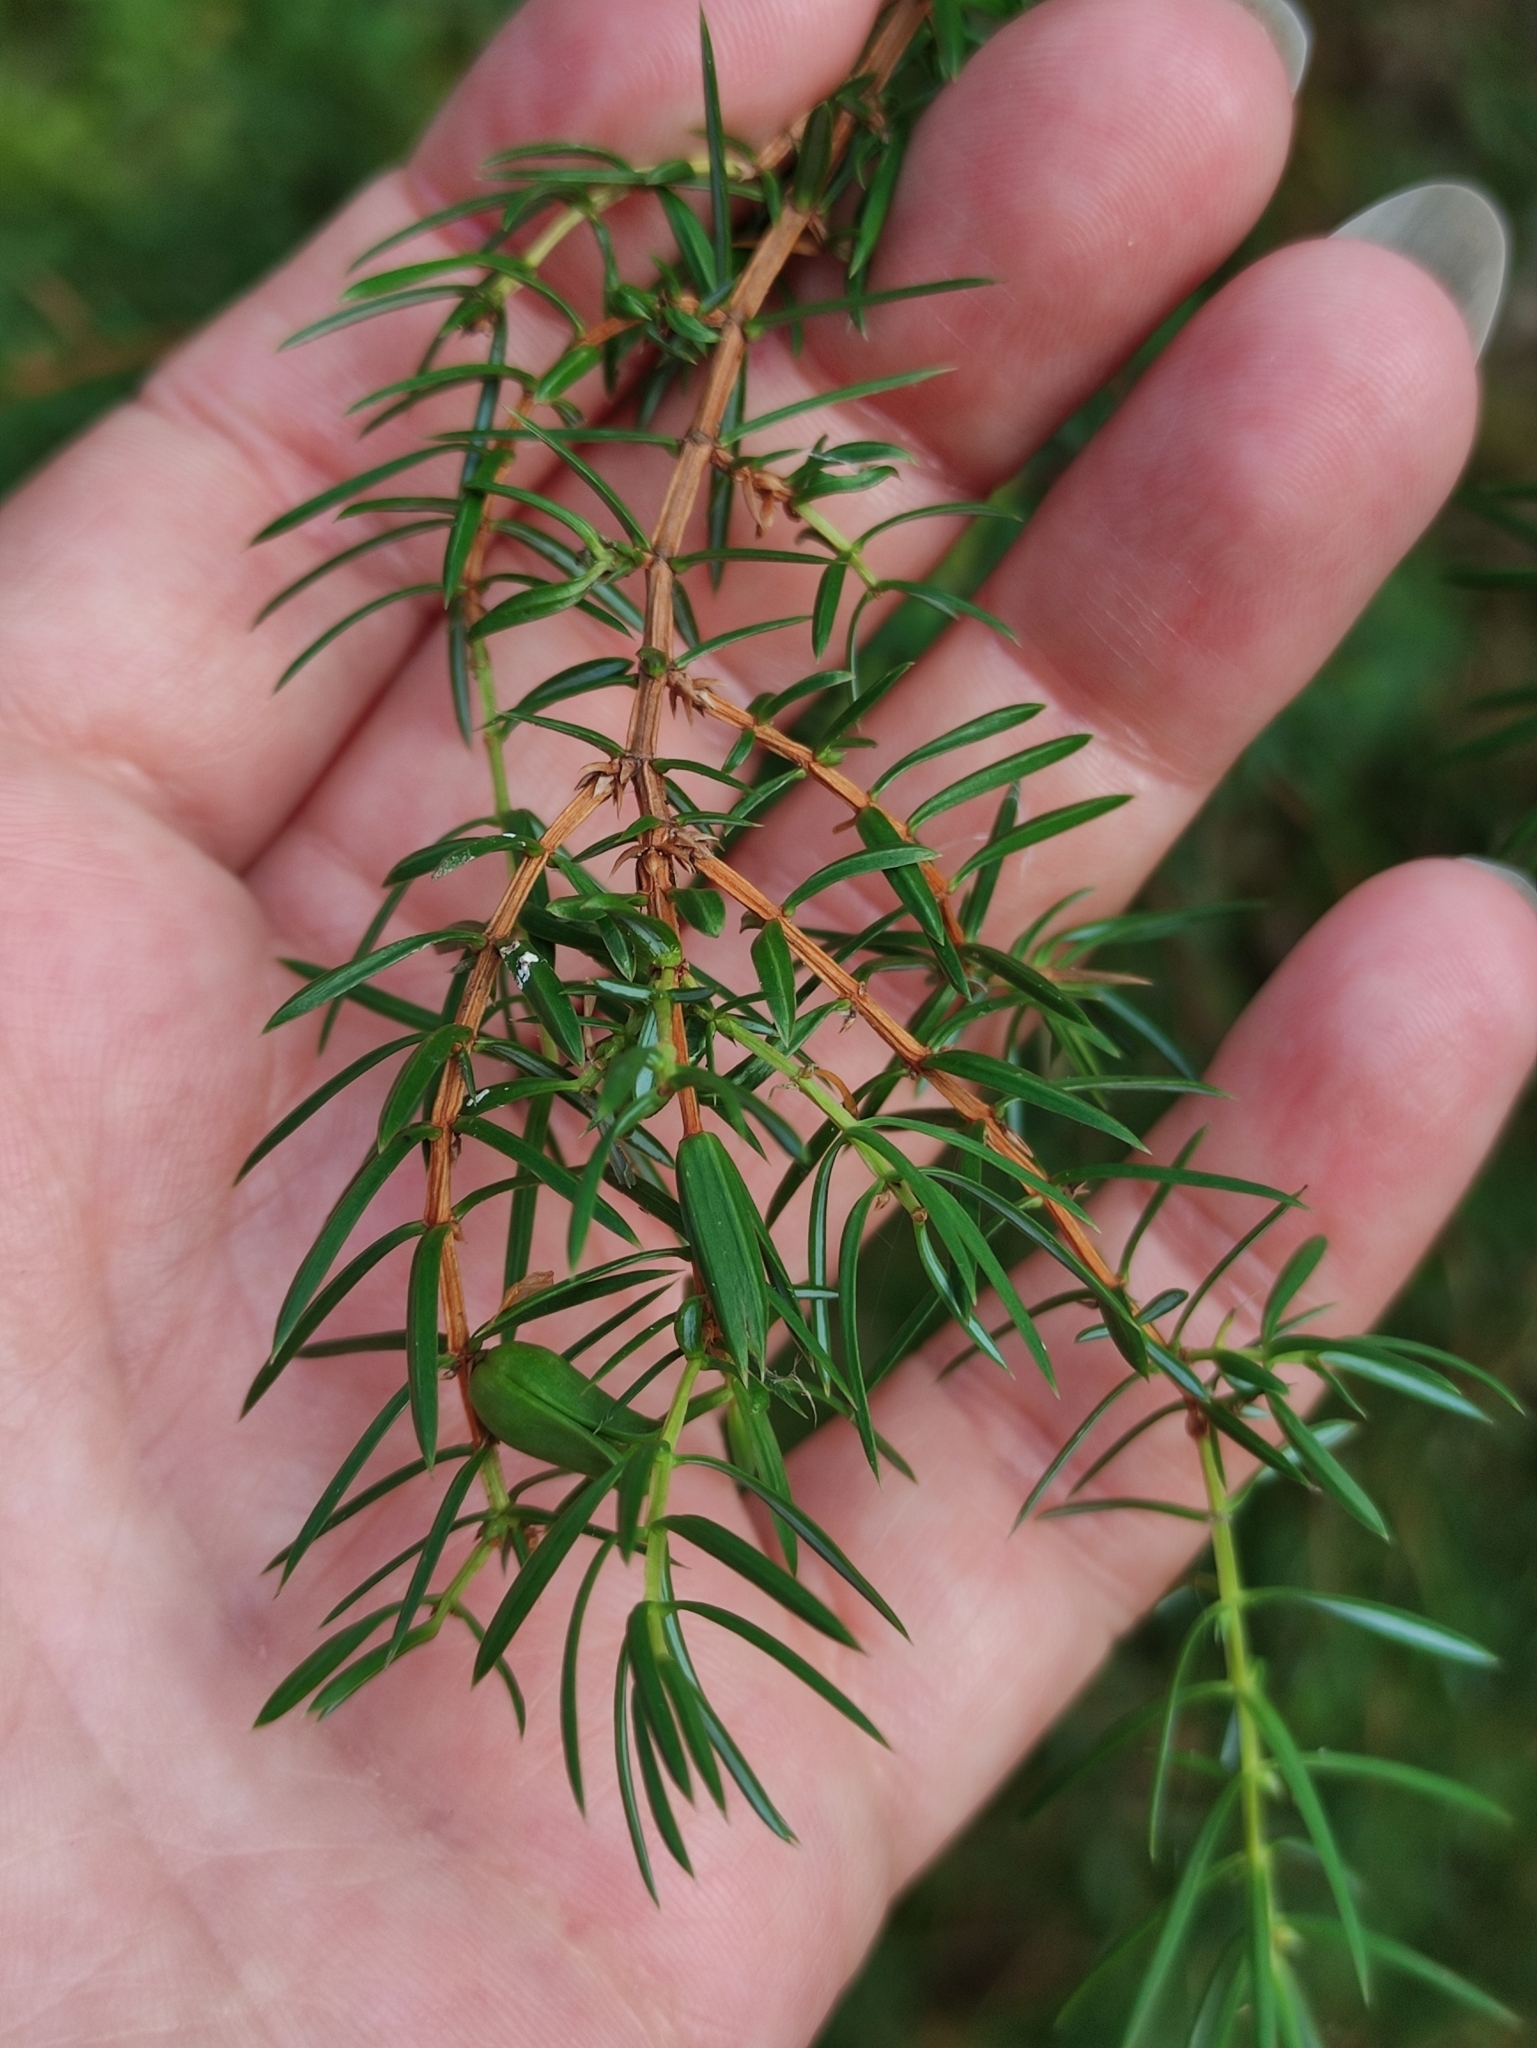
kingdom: Plantae
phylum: Tracheophyta
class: Pinopsida
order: Pinales
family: Cupressaceae
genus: Juniperus
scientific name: Juniperus communis
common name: Common juniper
